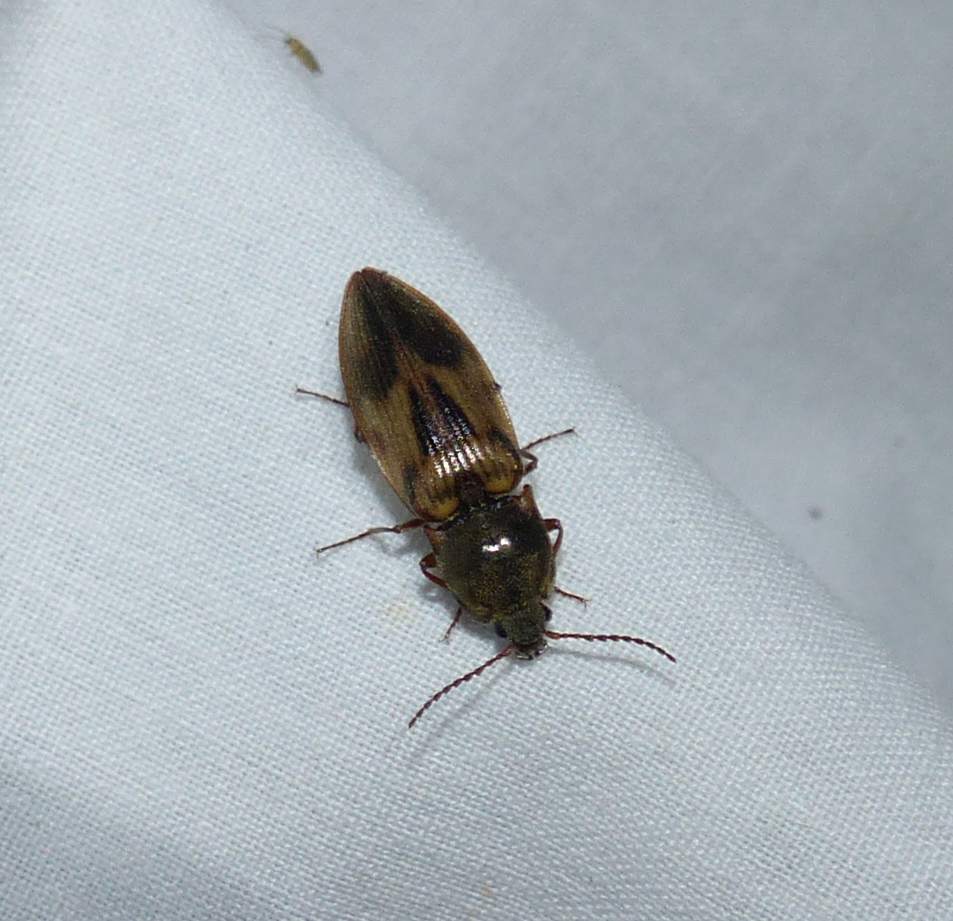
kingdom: Animalia
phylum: Arthropoda
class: Insecta
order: Coleoptera
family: Elateridae
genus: Stropenron
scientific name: Stropenron hieroglyphica
